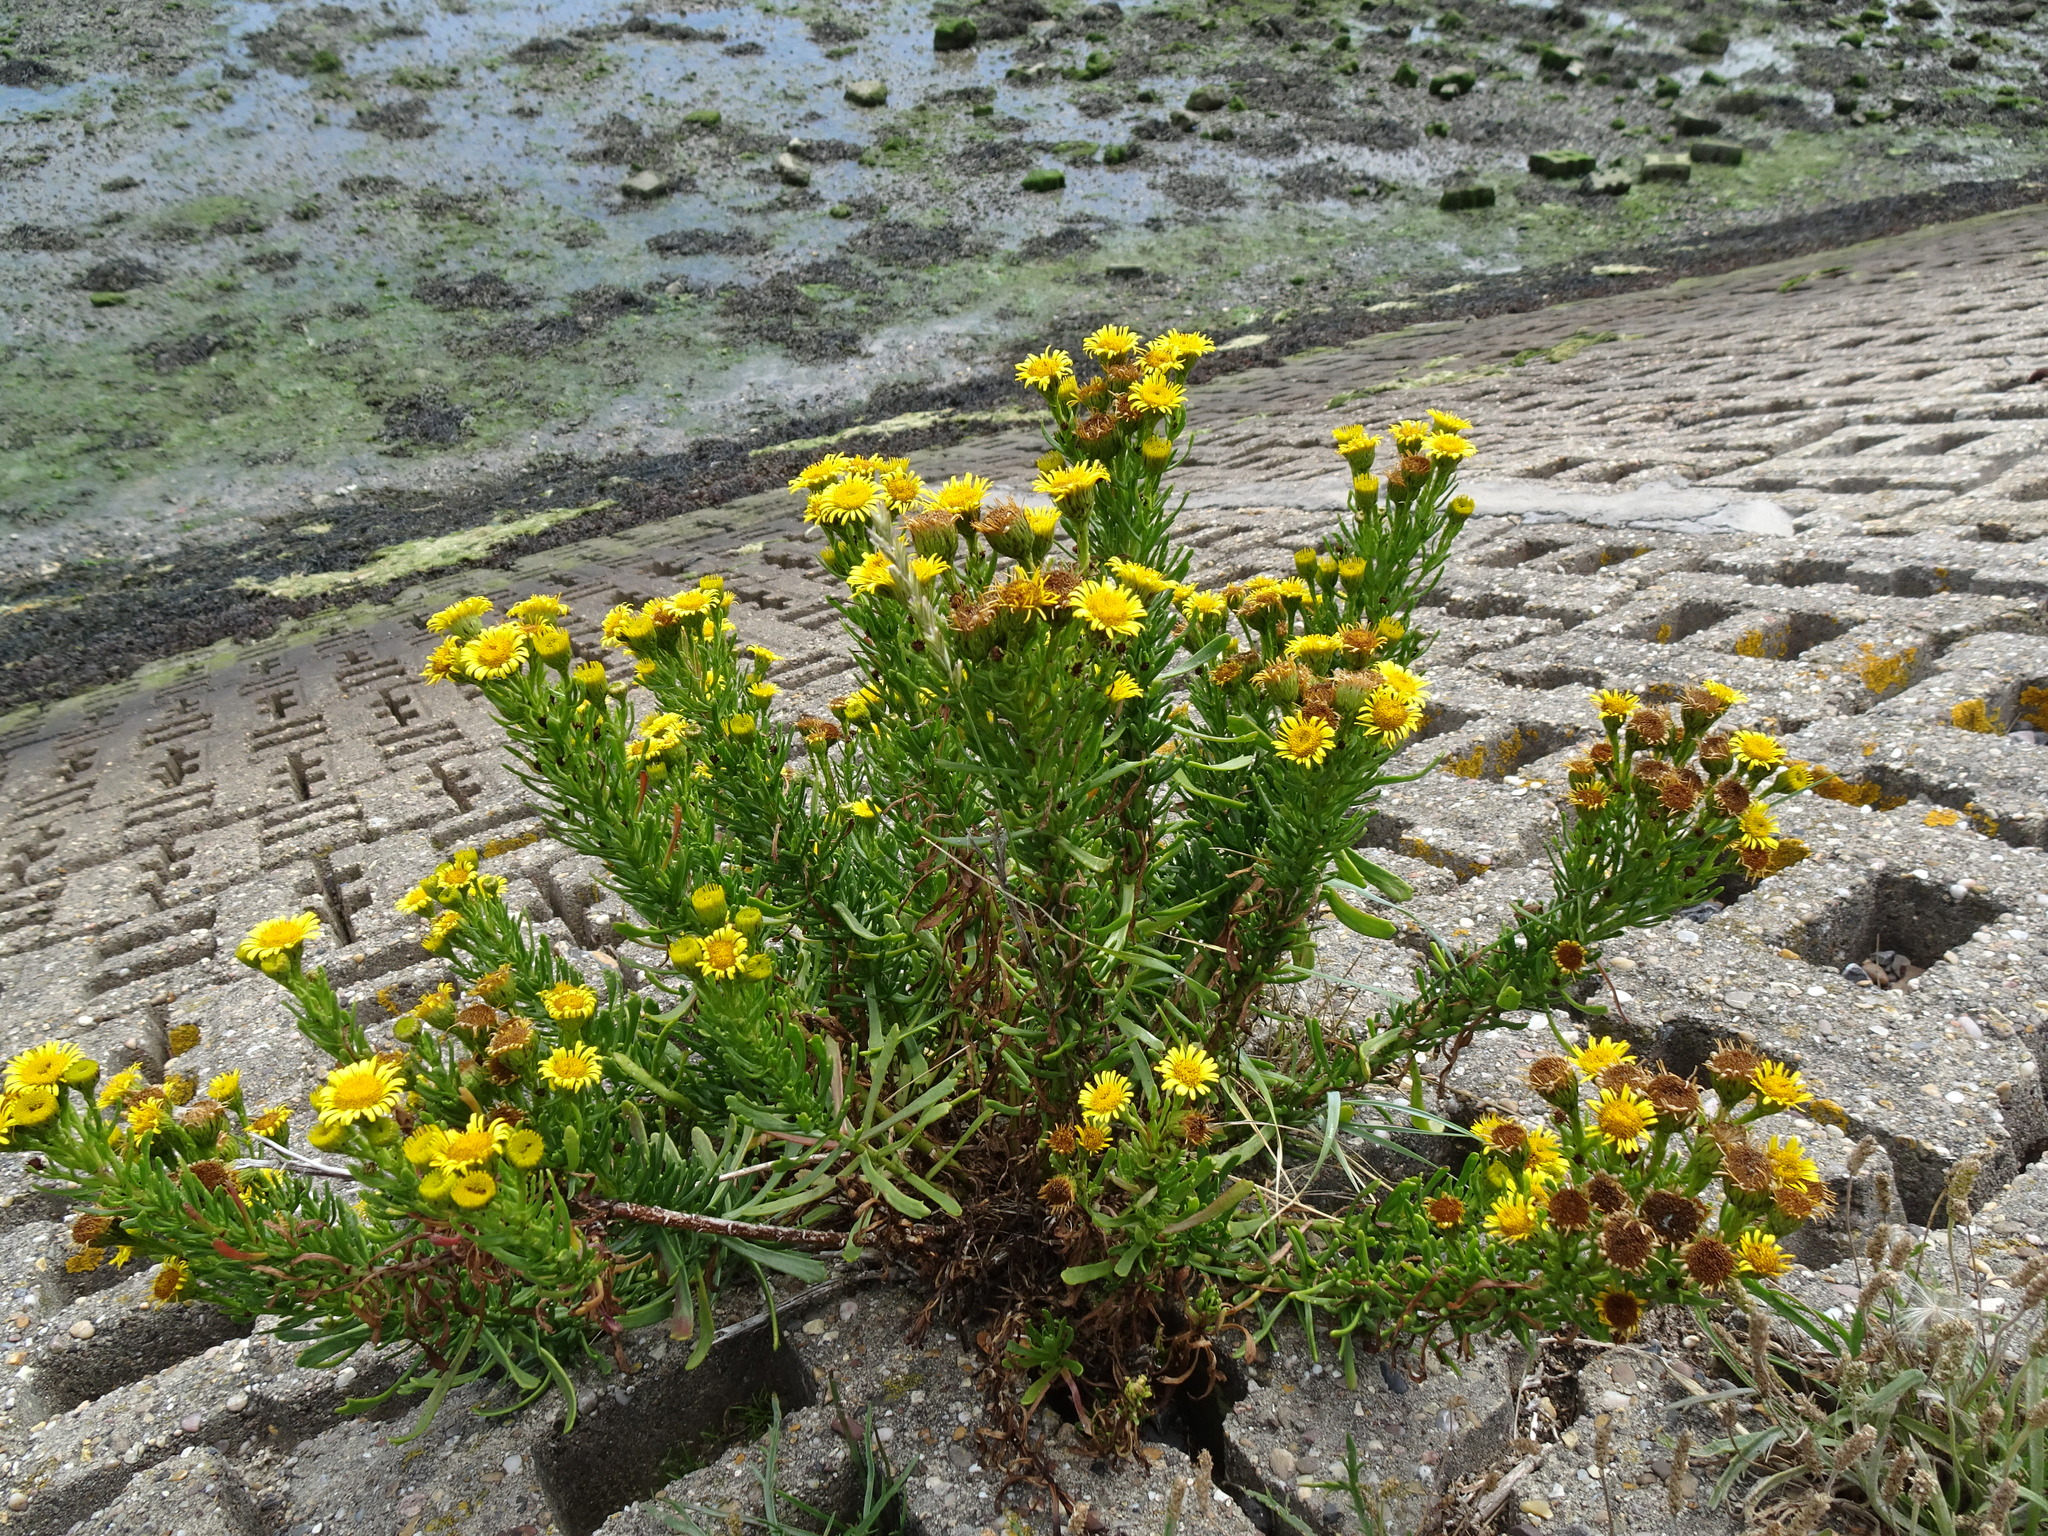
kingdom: Plantae
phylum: Tracheophyta
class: Magnoliopsida
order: Asterales
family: Asteraceae
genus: Limbarda
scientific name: Limbarda crithmoides
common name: Golden samphire
